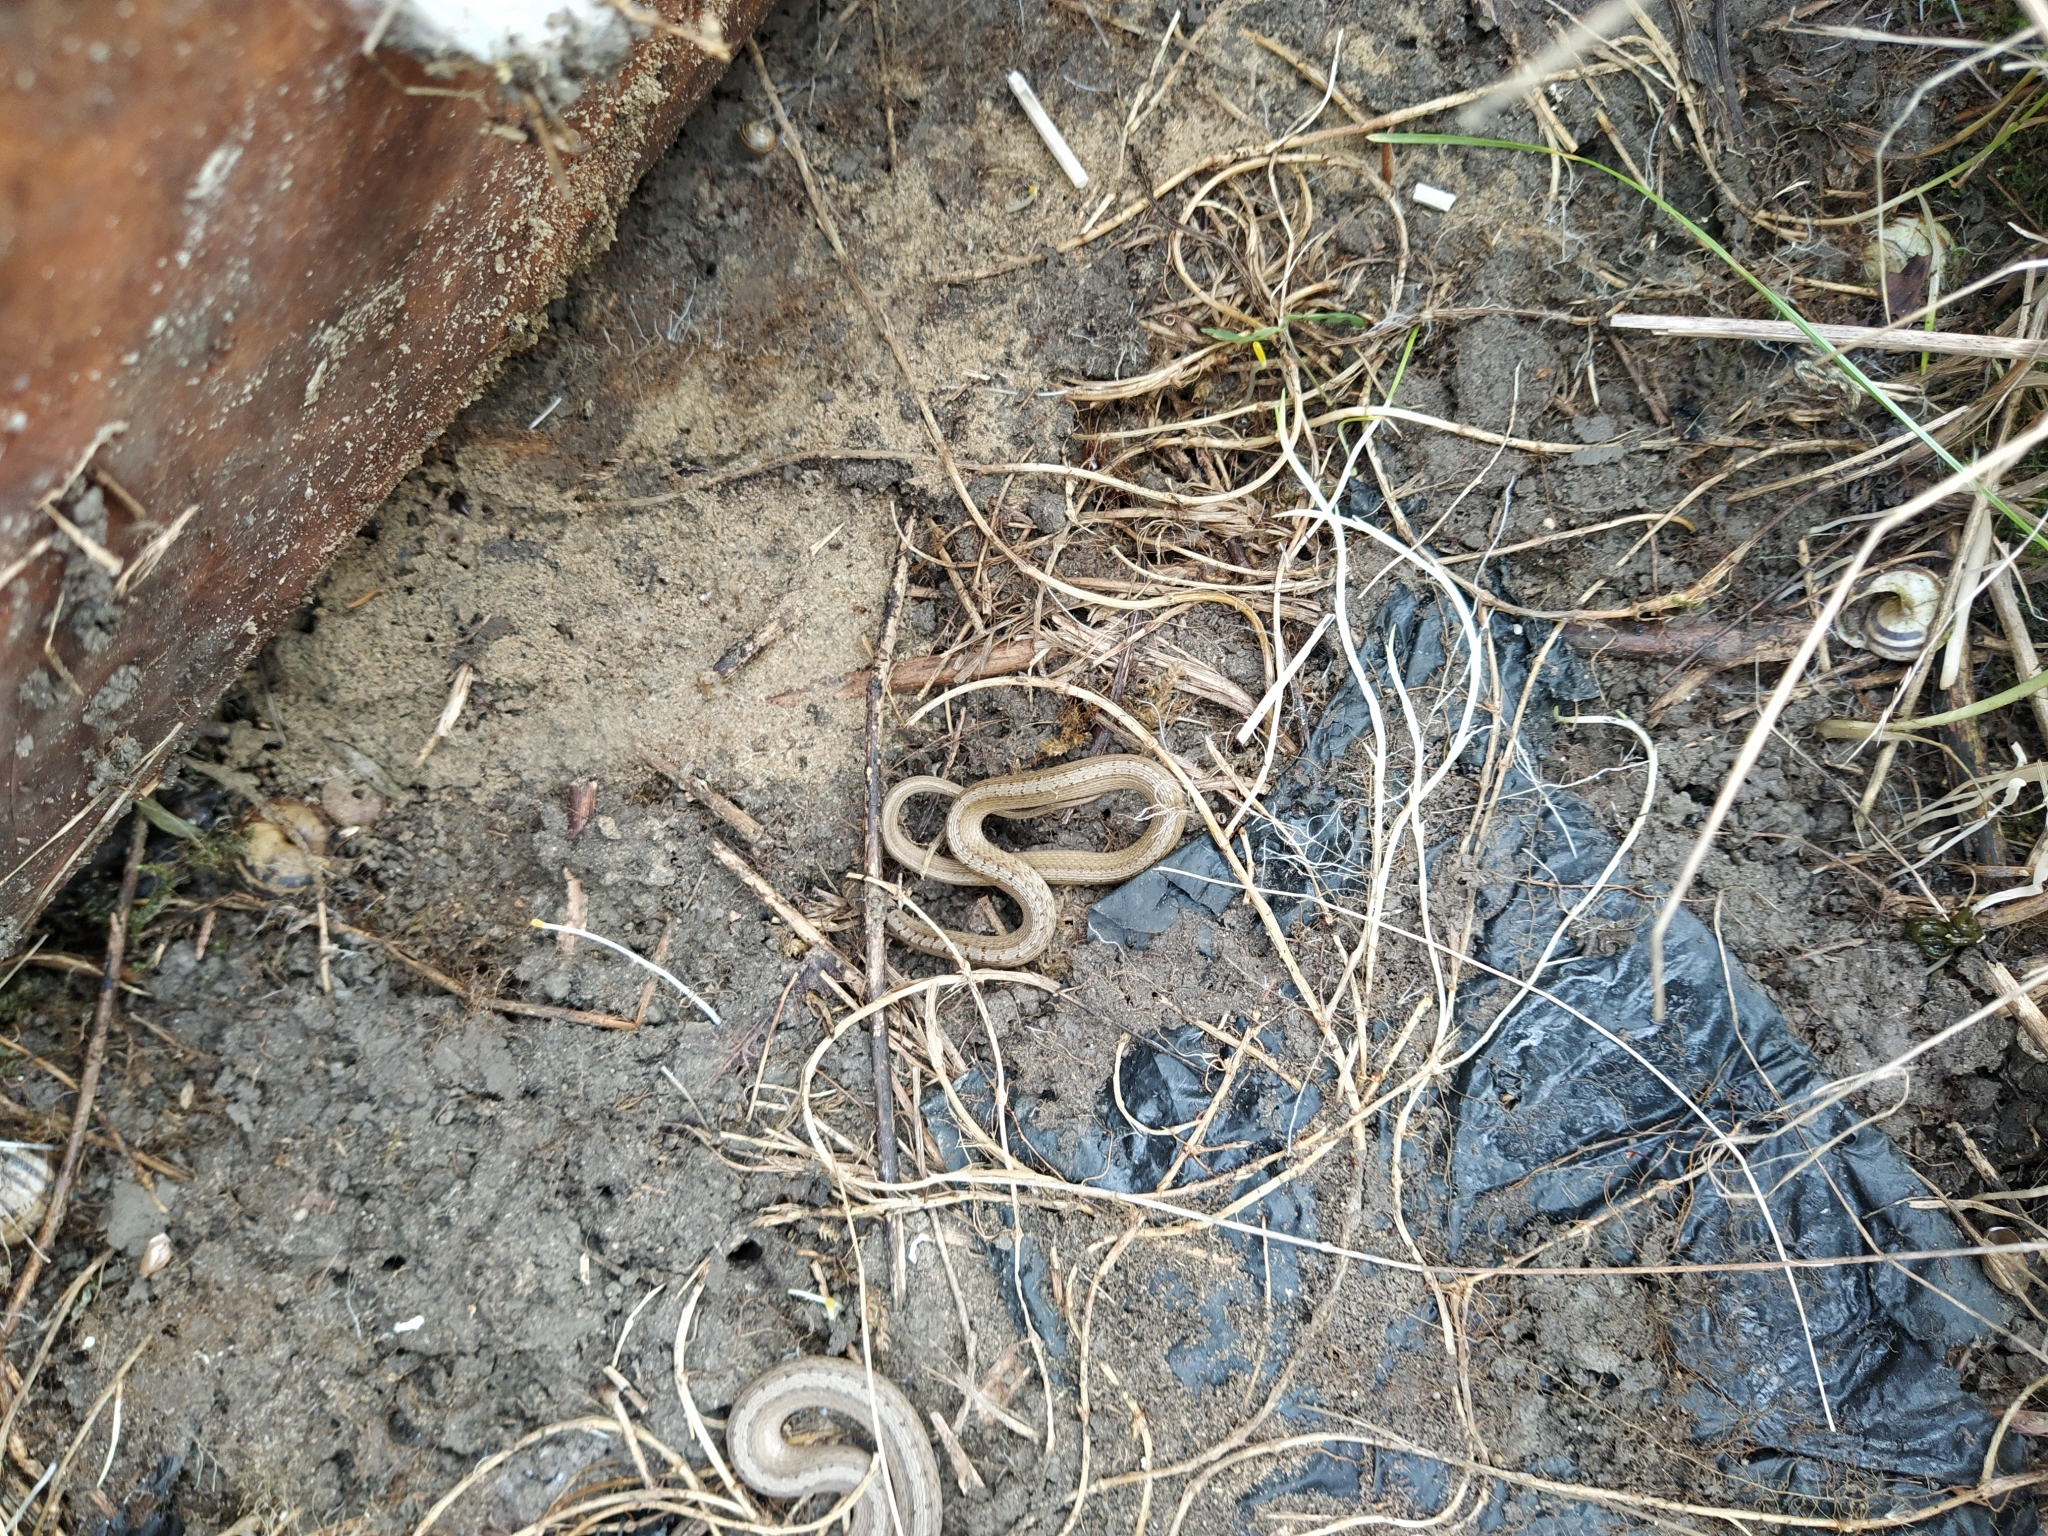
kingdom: Animalia
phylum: Chordata
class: Squamata
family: Colubridae
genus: Storeria
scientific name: Storeria dekayi
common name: (dekay’s) brown snake
